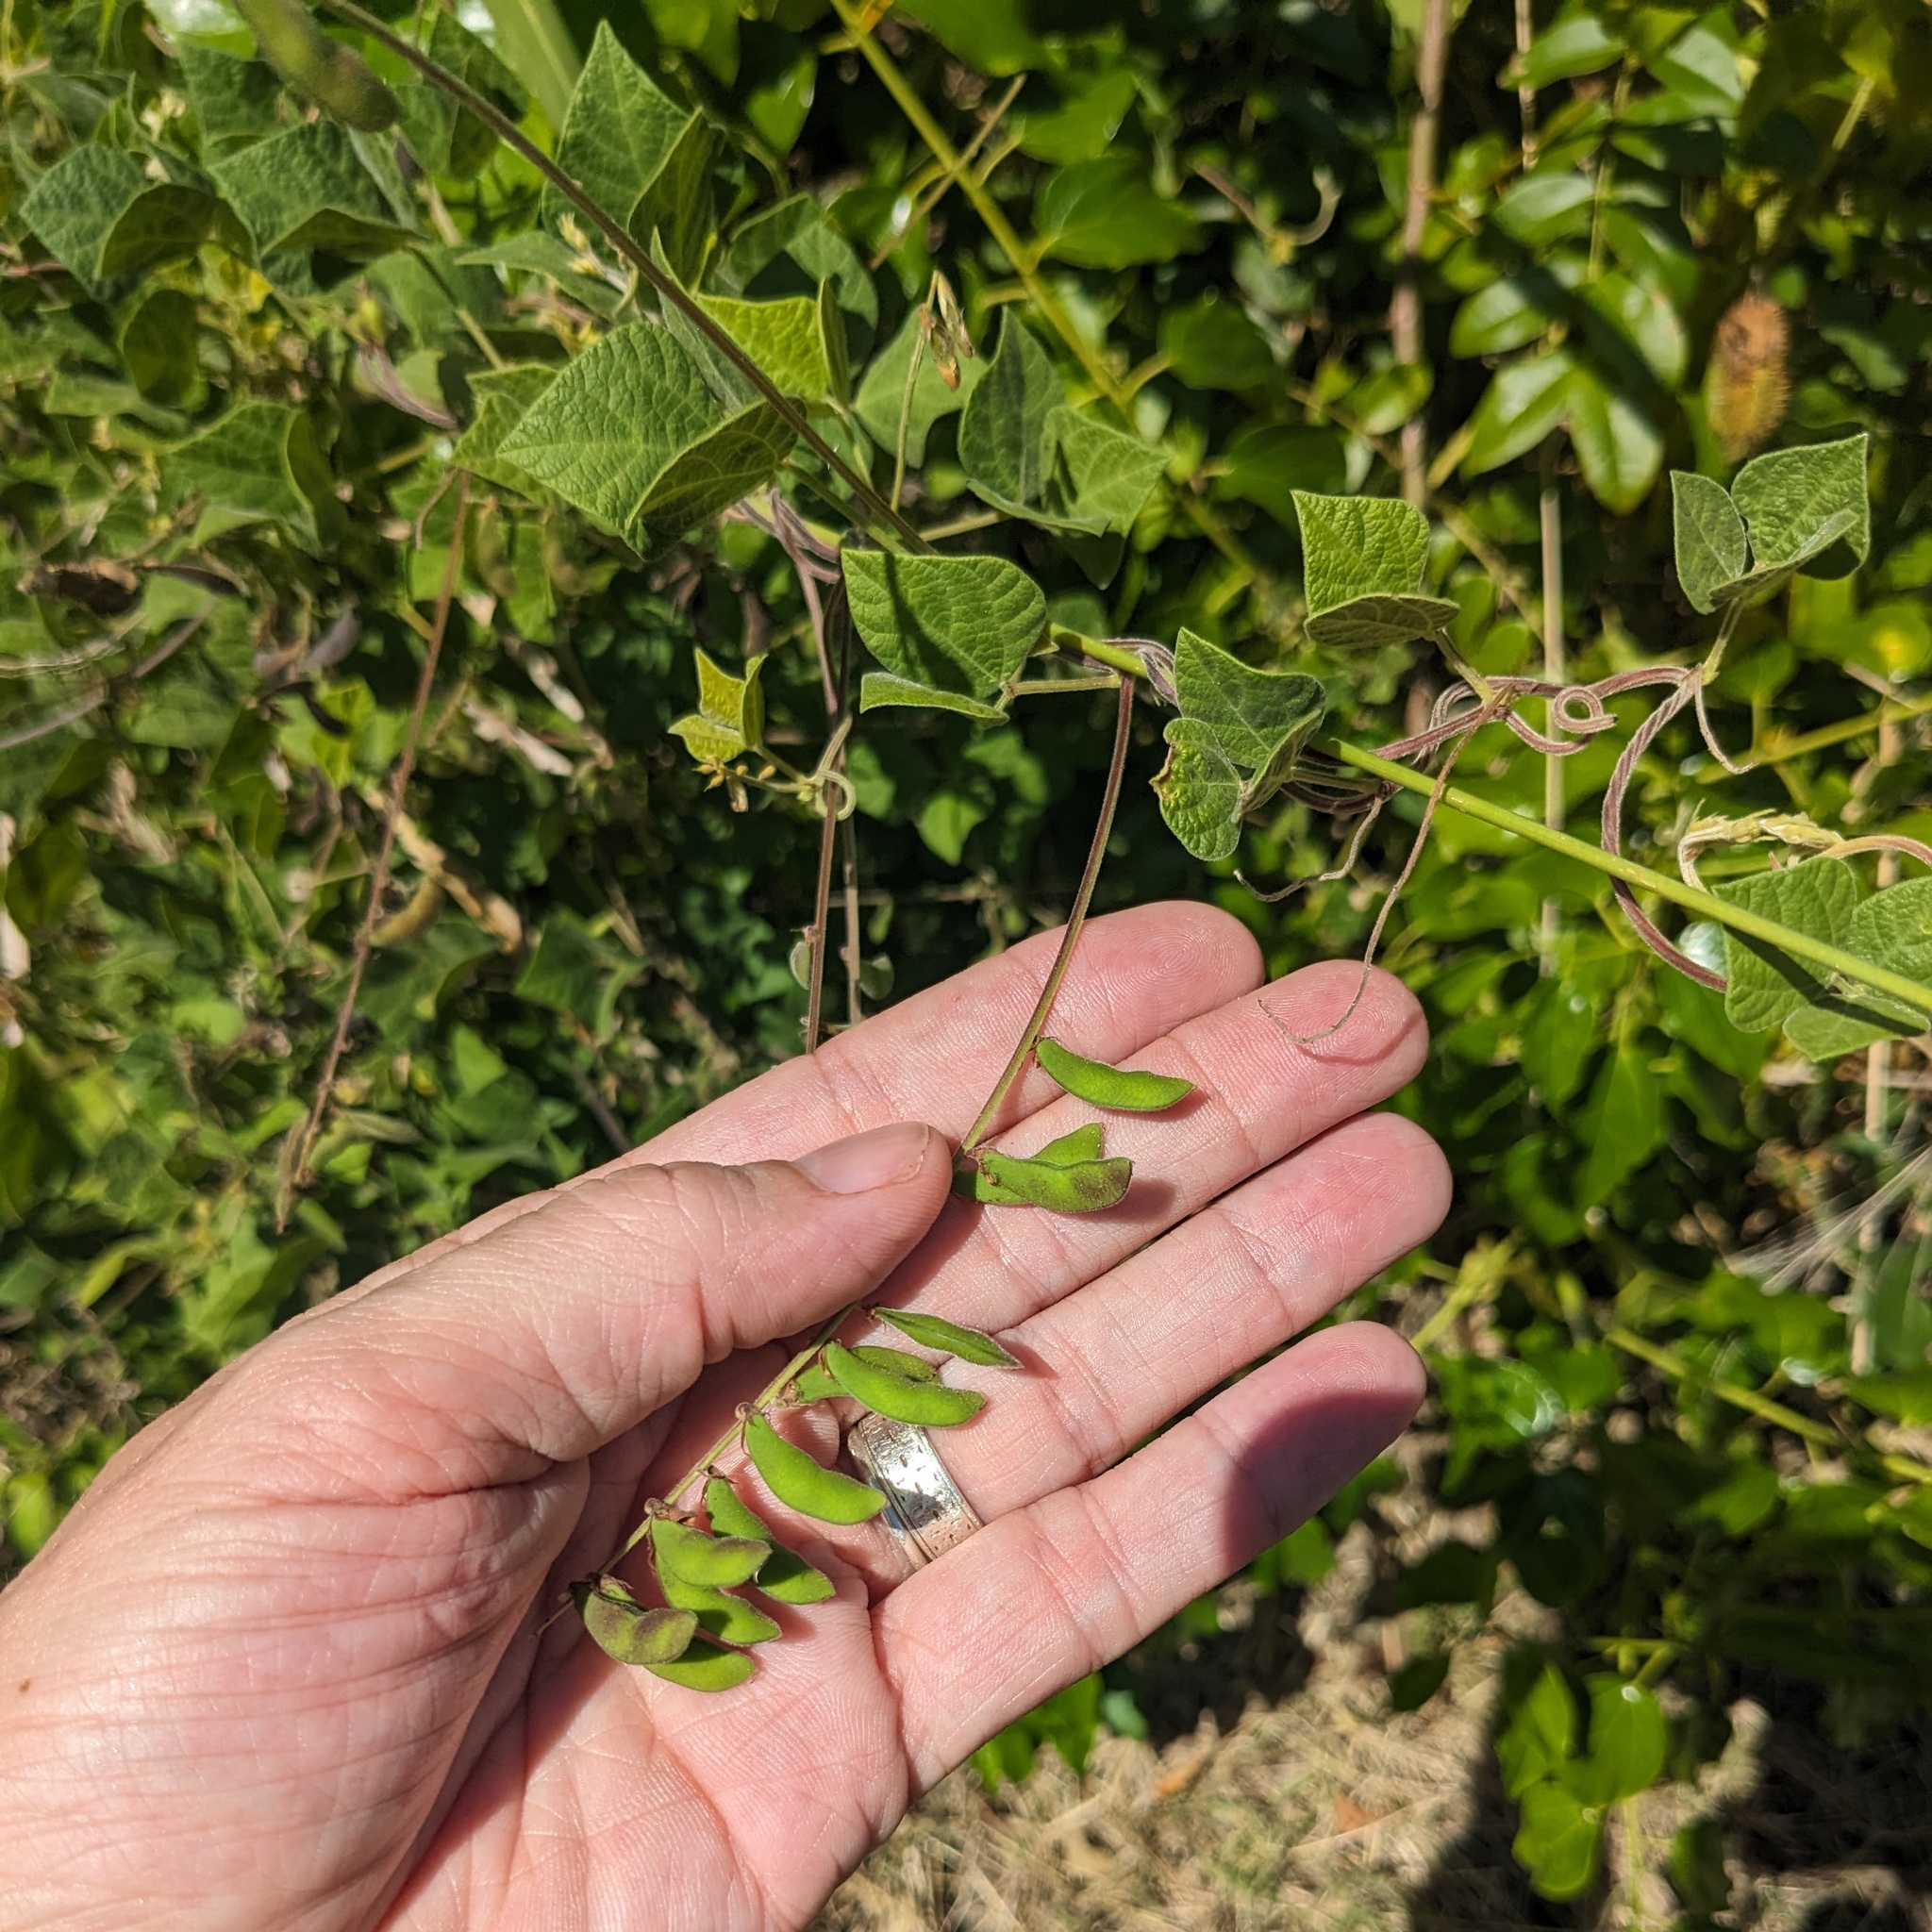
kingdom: Plantae
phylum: Tracheophyta
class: Magnoliopsida
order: Fabales
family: Fabaceae
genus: Rhynchosia
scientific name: Rhynchosia minima
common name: Least snoutbean
